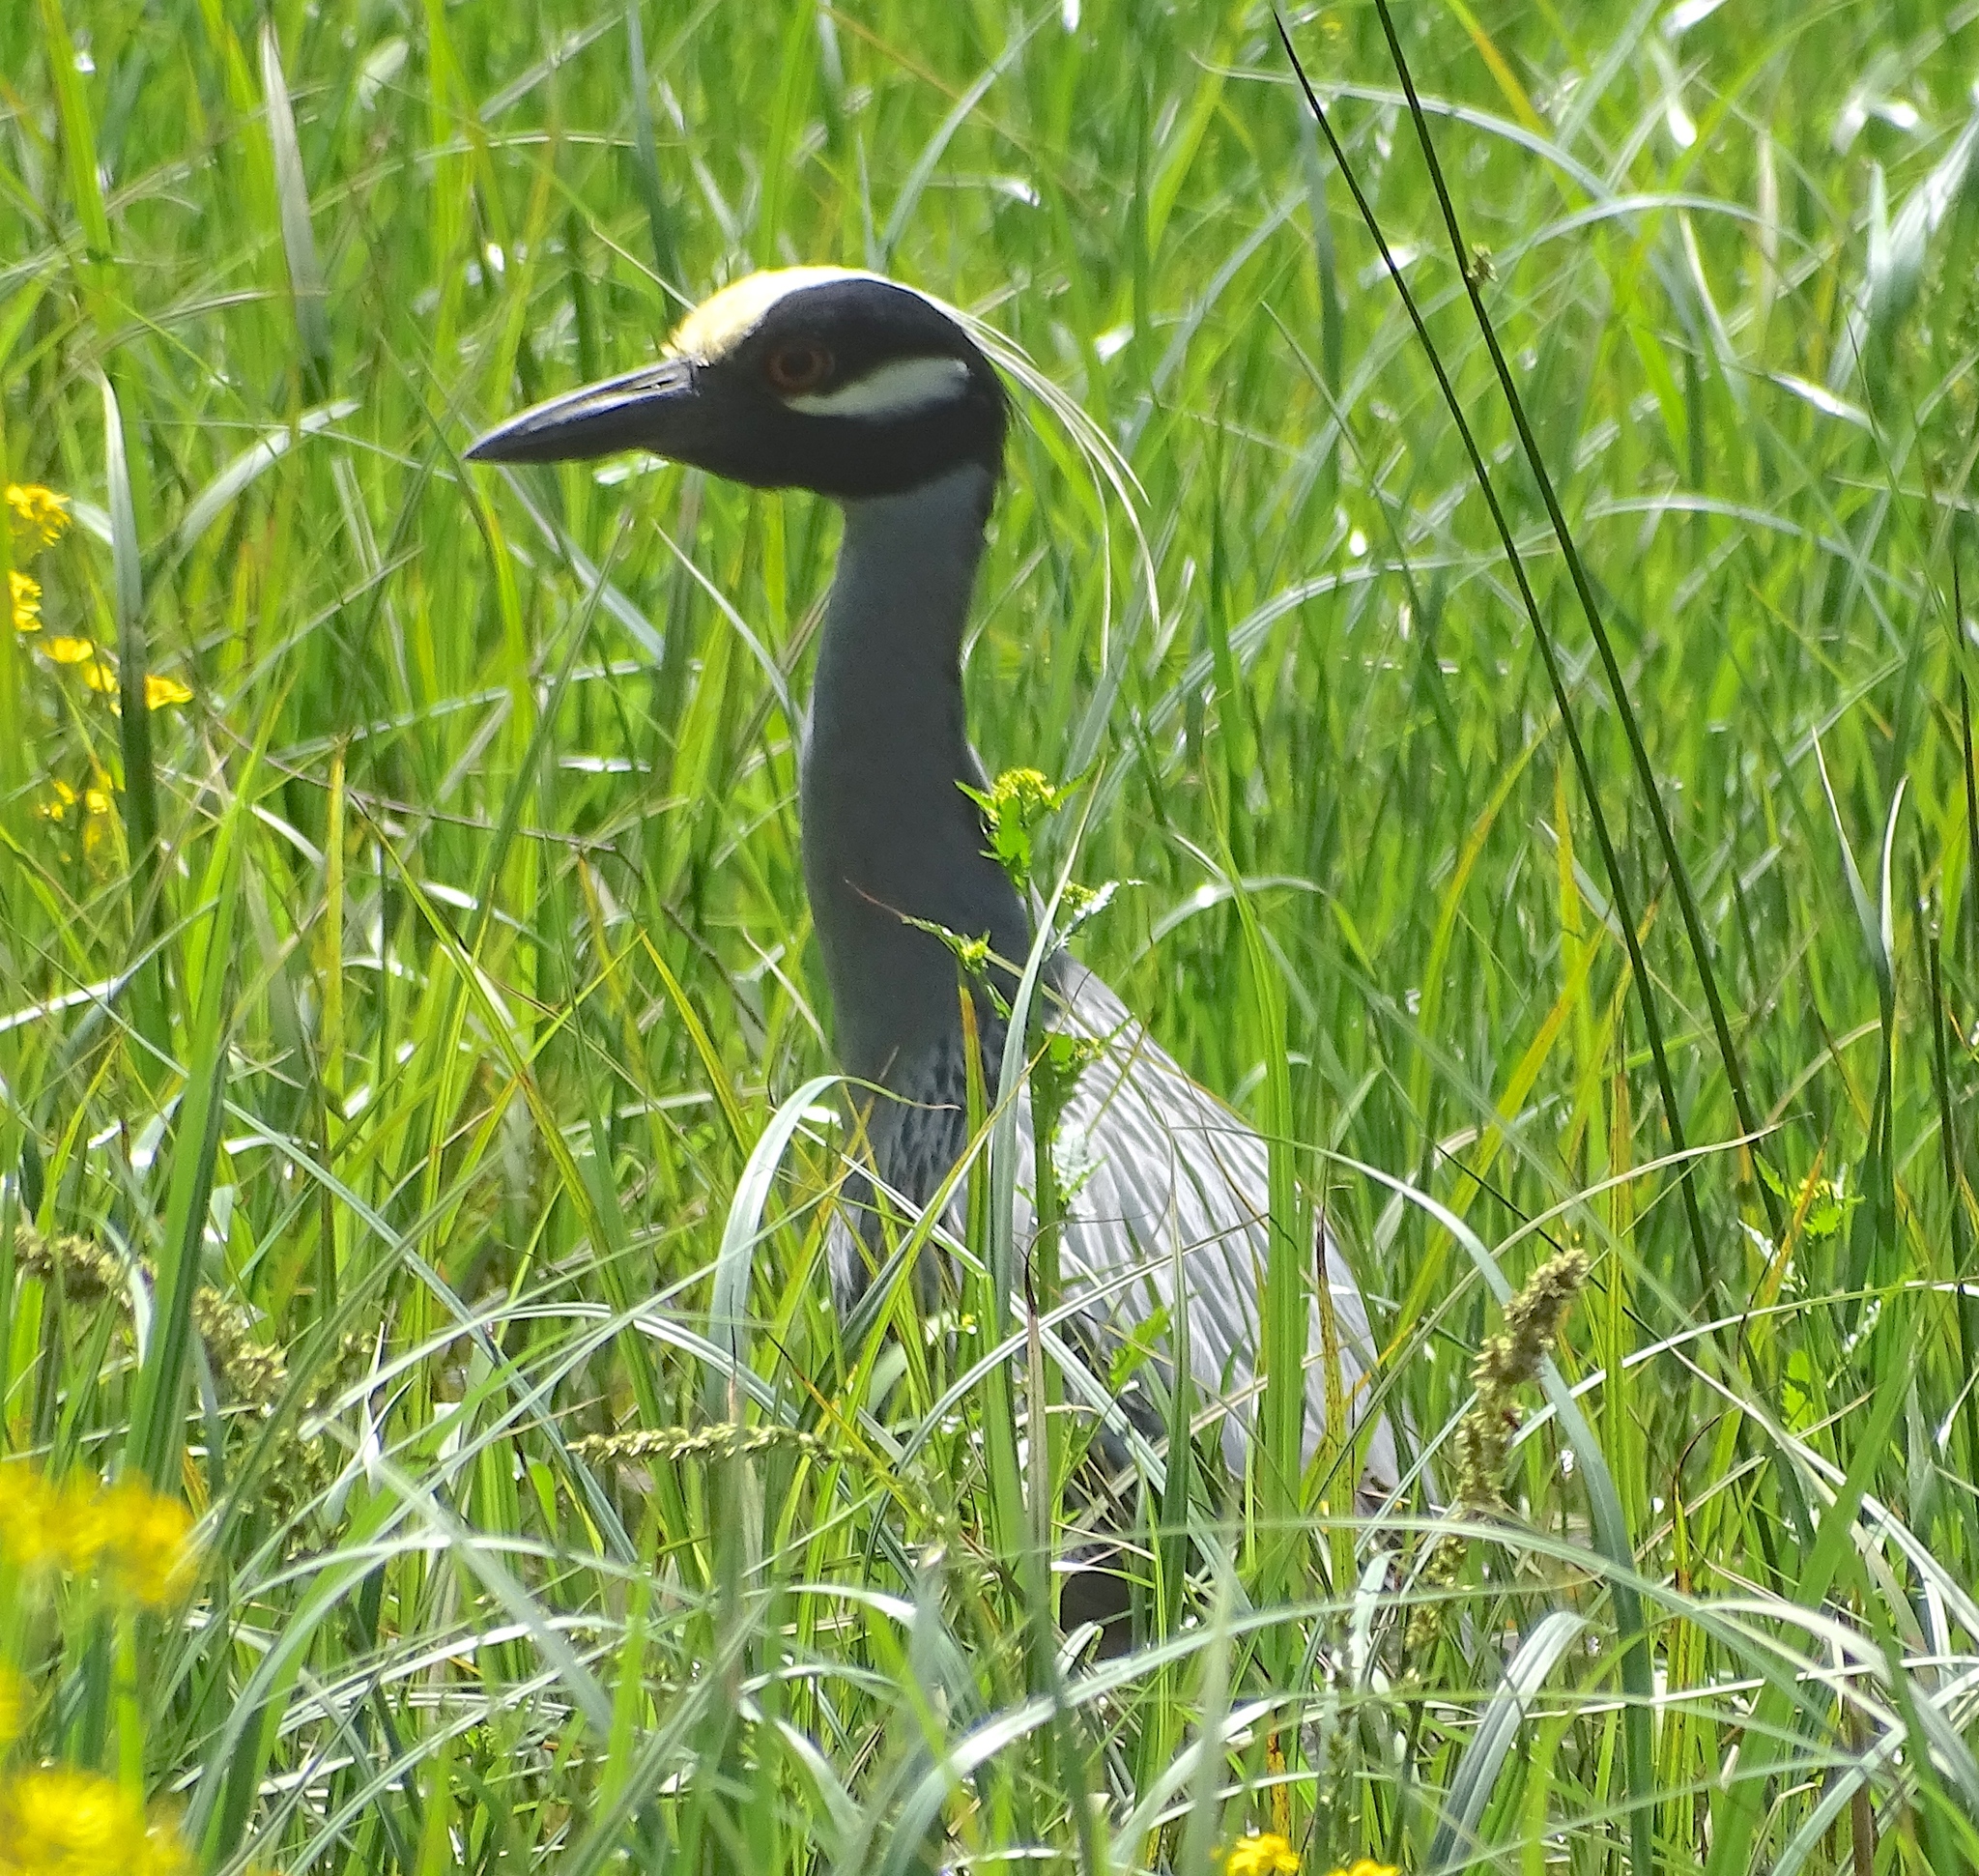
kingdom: Animalia
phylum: Chordata
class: Aves
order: Pelecaniformes
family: Ardeidae
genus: Nyctanassa
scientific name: Nyctanassa violacea
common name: Yellow-crowned night heron
